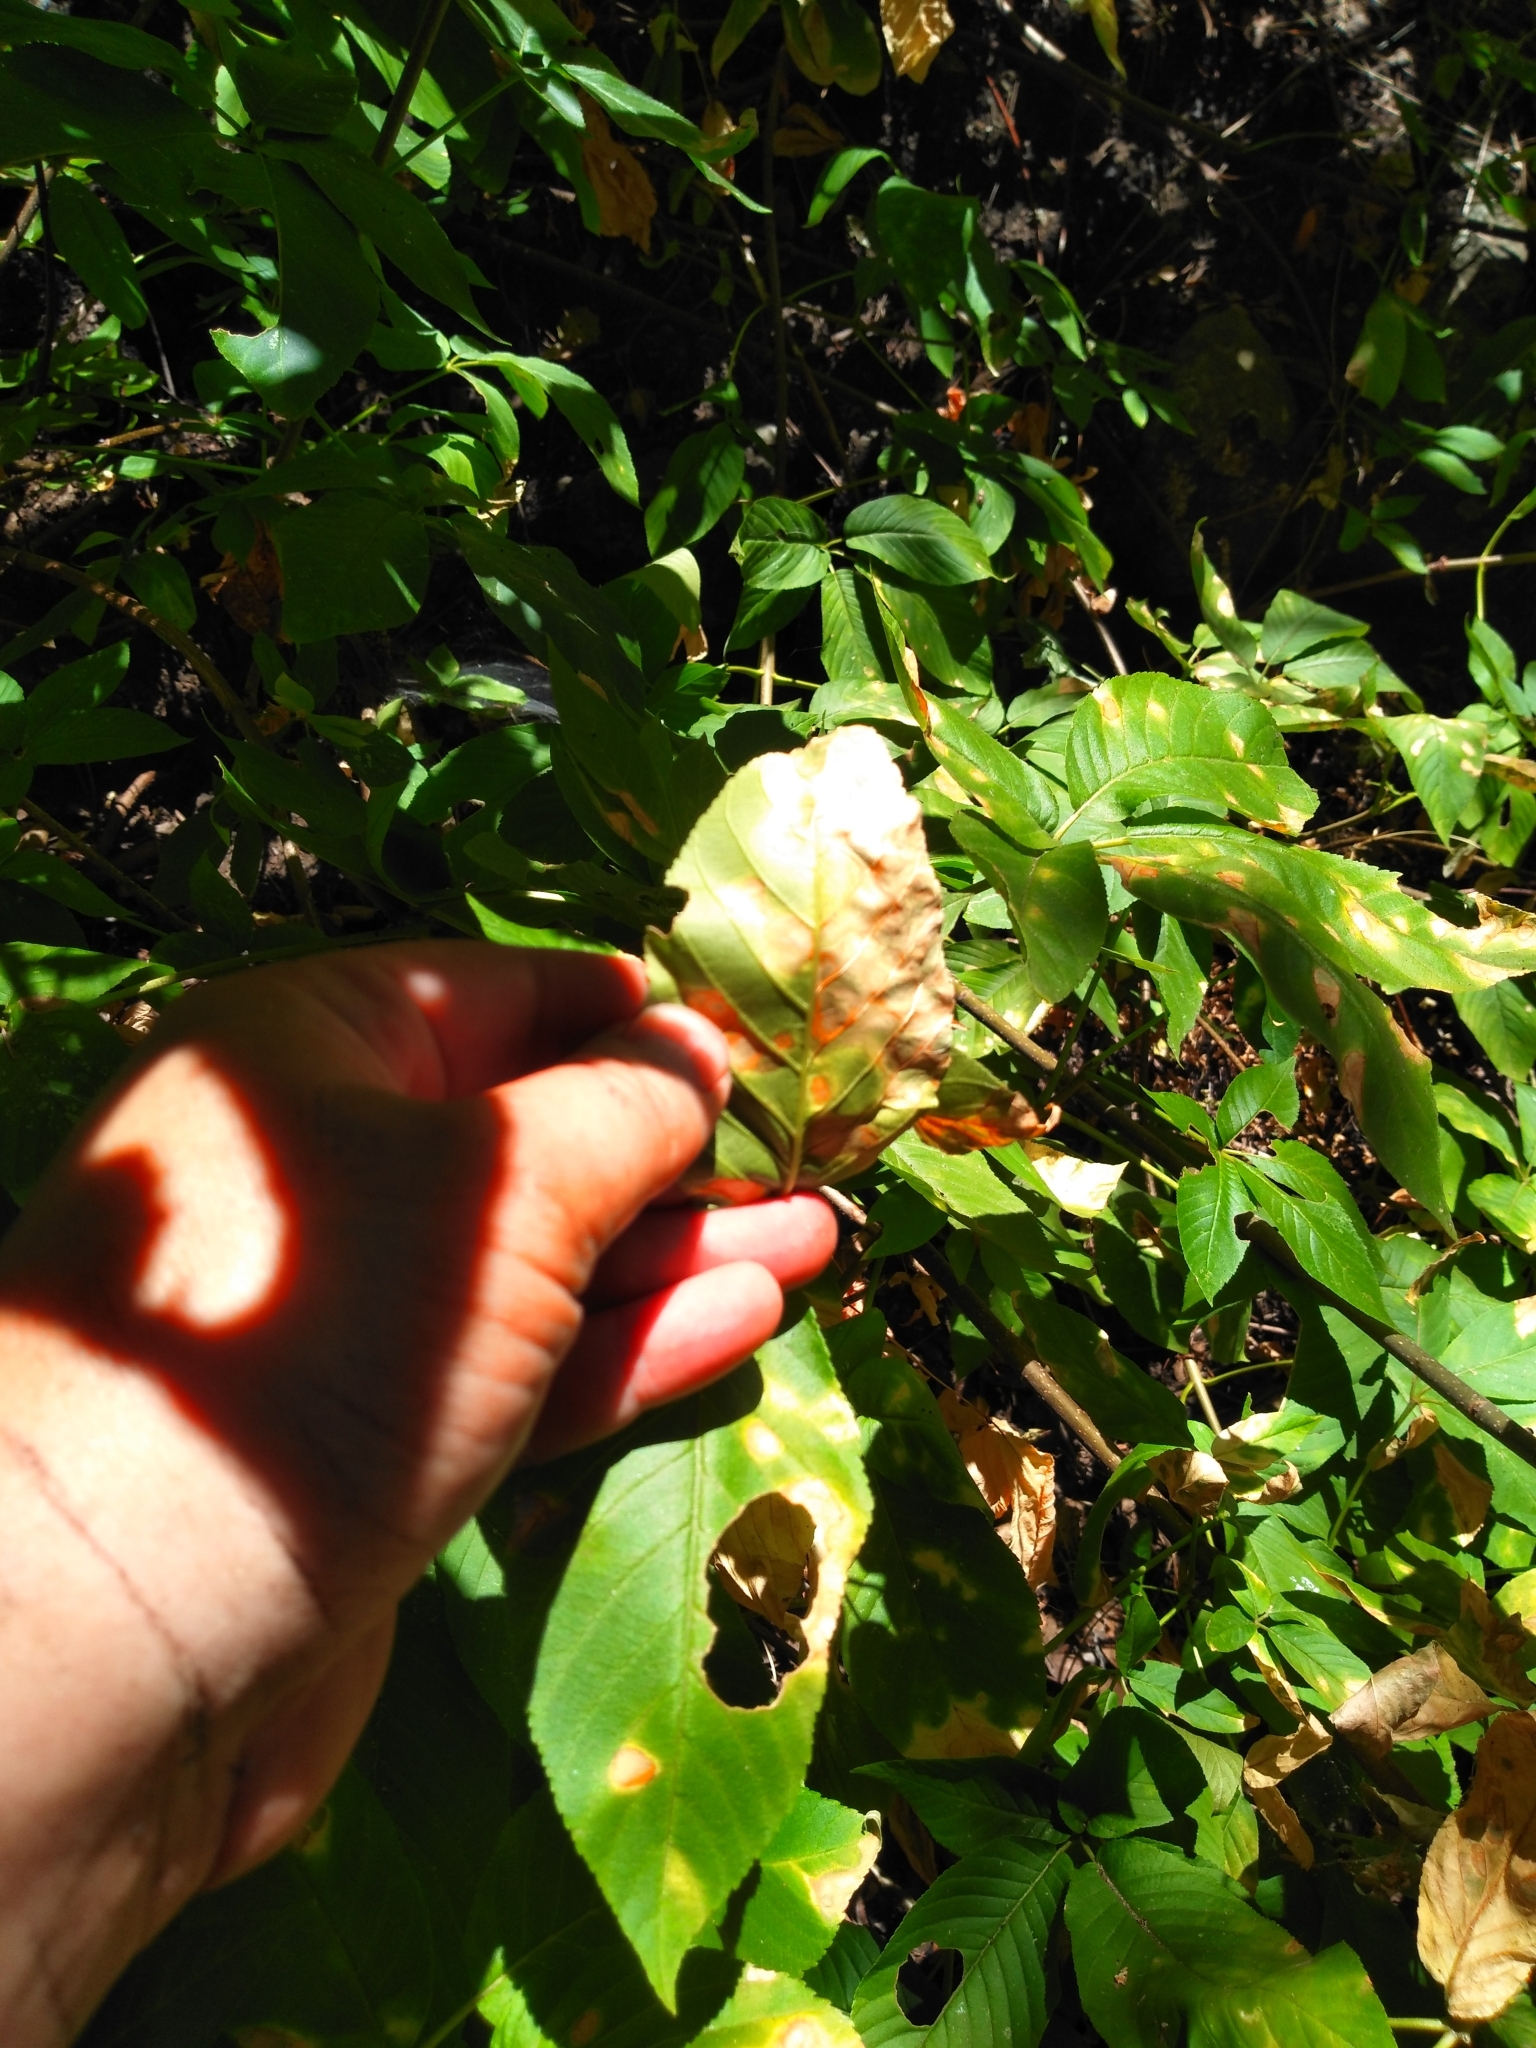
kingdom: Plantae
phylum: Tracheophyta
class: Magnoliopsida
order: Sapindales
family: Sapindaceae
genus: Aesculus
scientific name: Aesculus californica
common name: California buckeye
